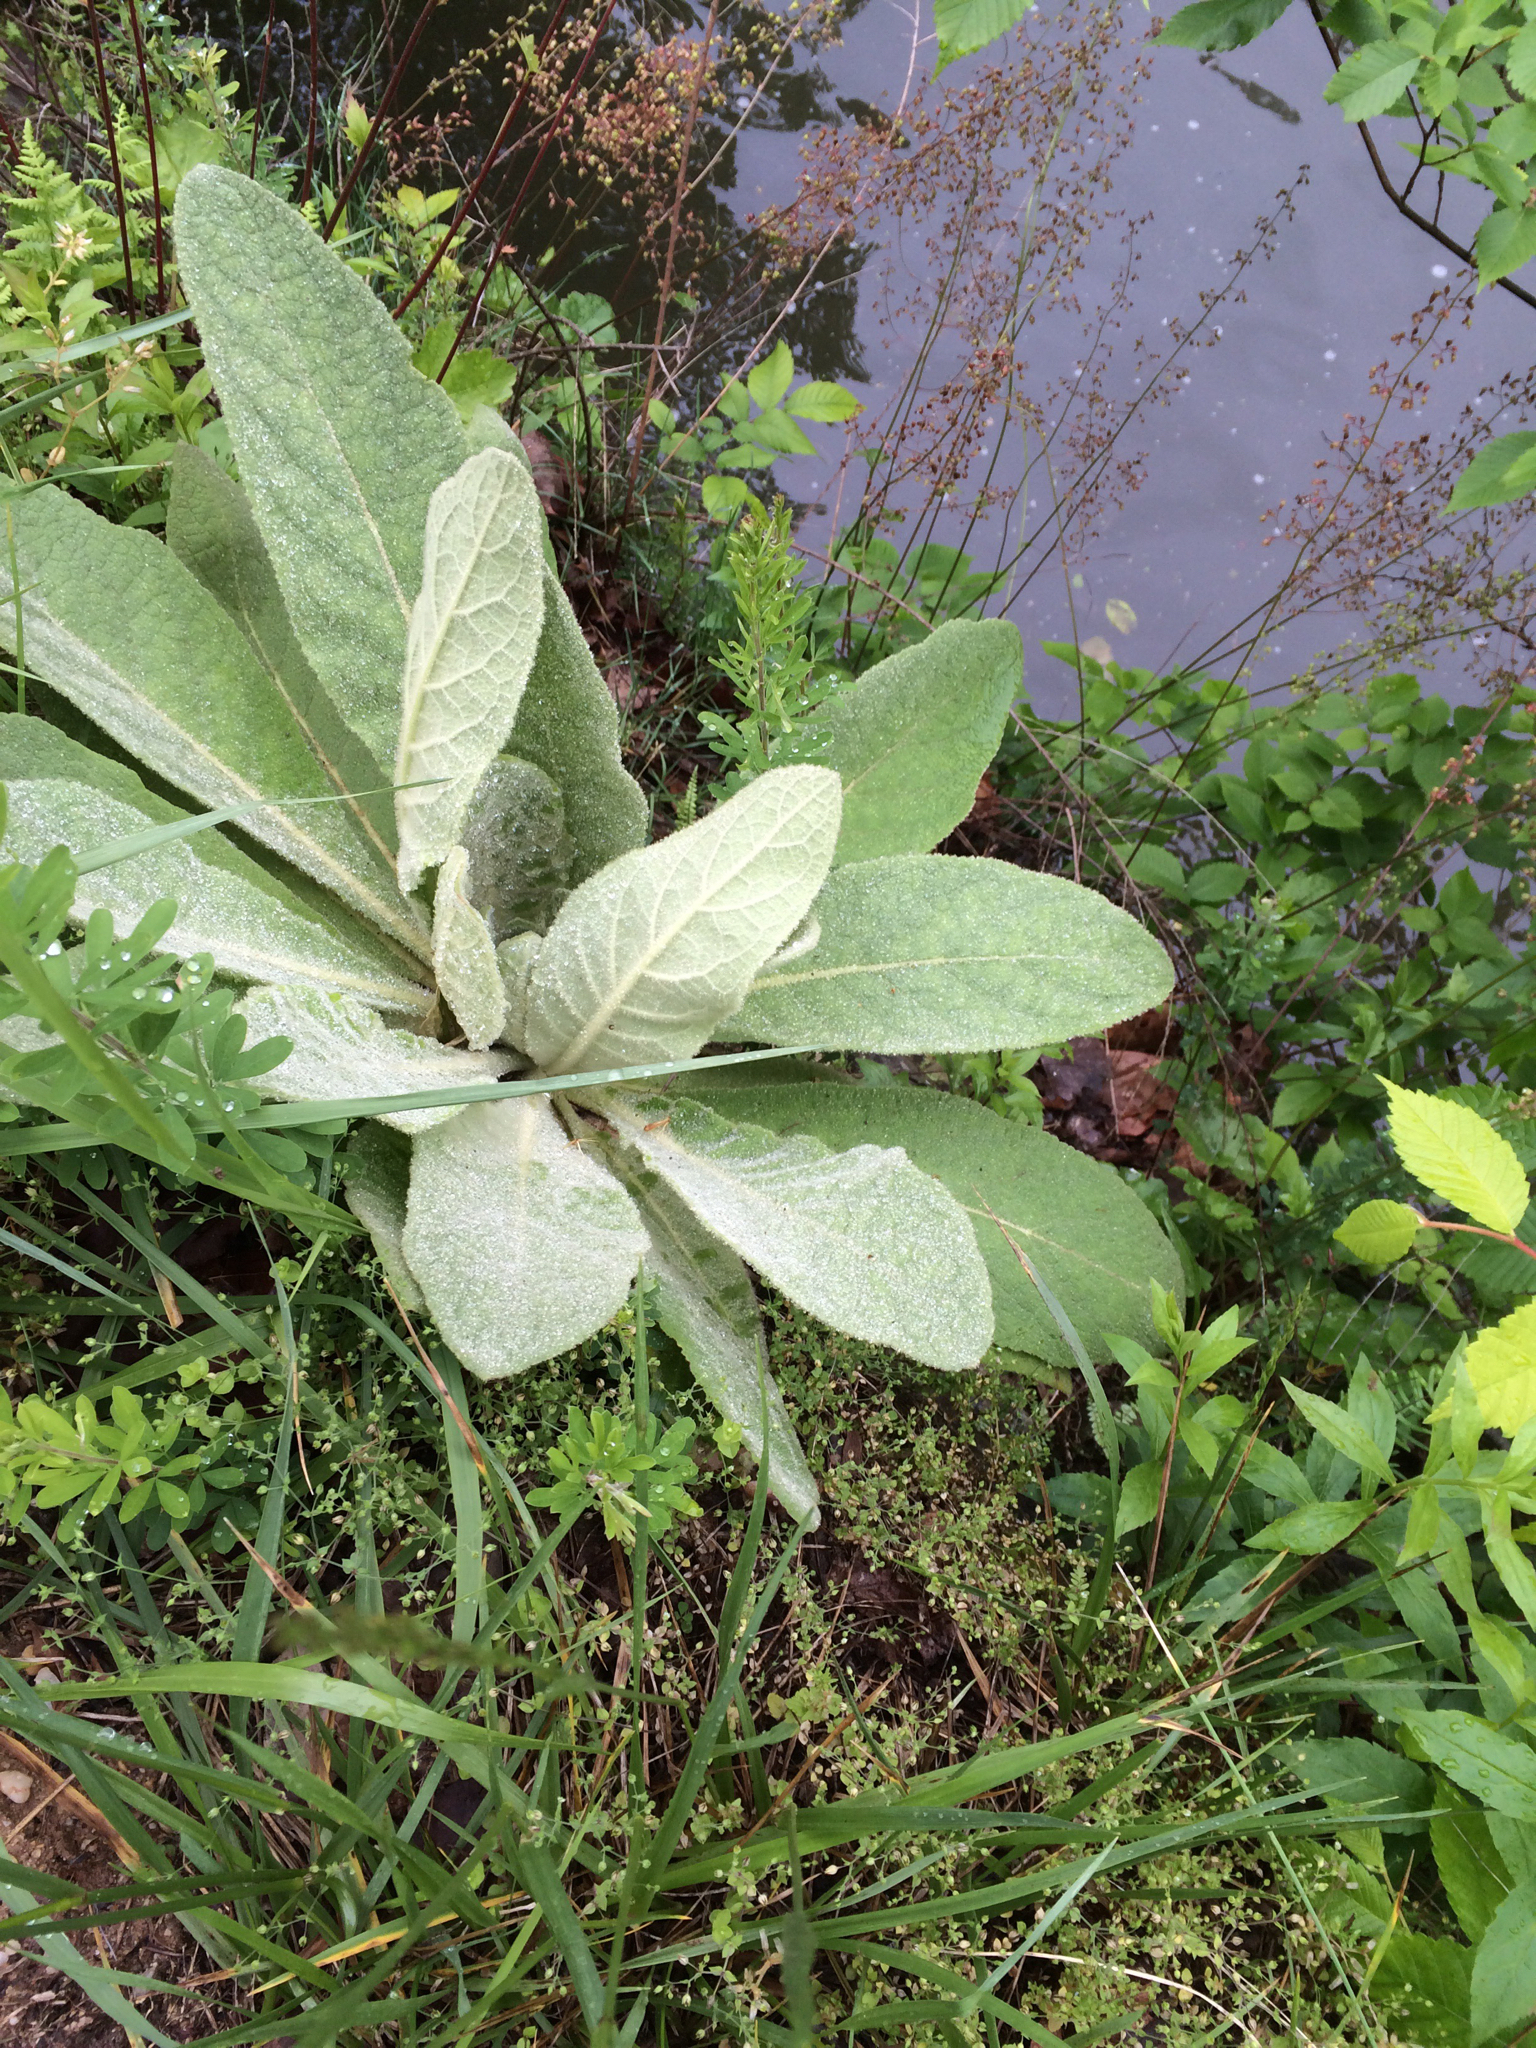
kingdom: Plantae
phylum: Tracheophyta
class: Magnoliopsida
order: Lamiales
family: Scrophulariaceae
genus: Verbascum
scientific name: Verbascum thapsus
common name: Common mullein
